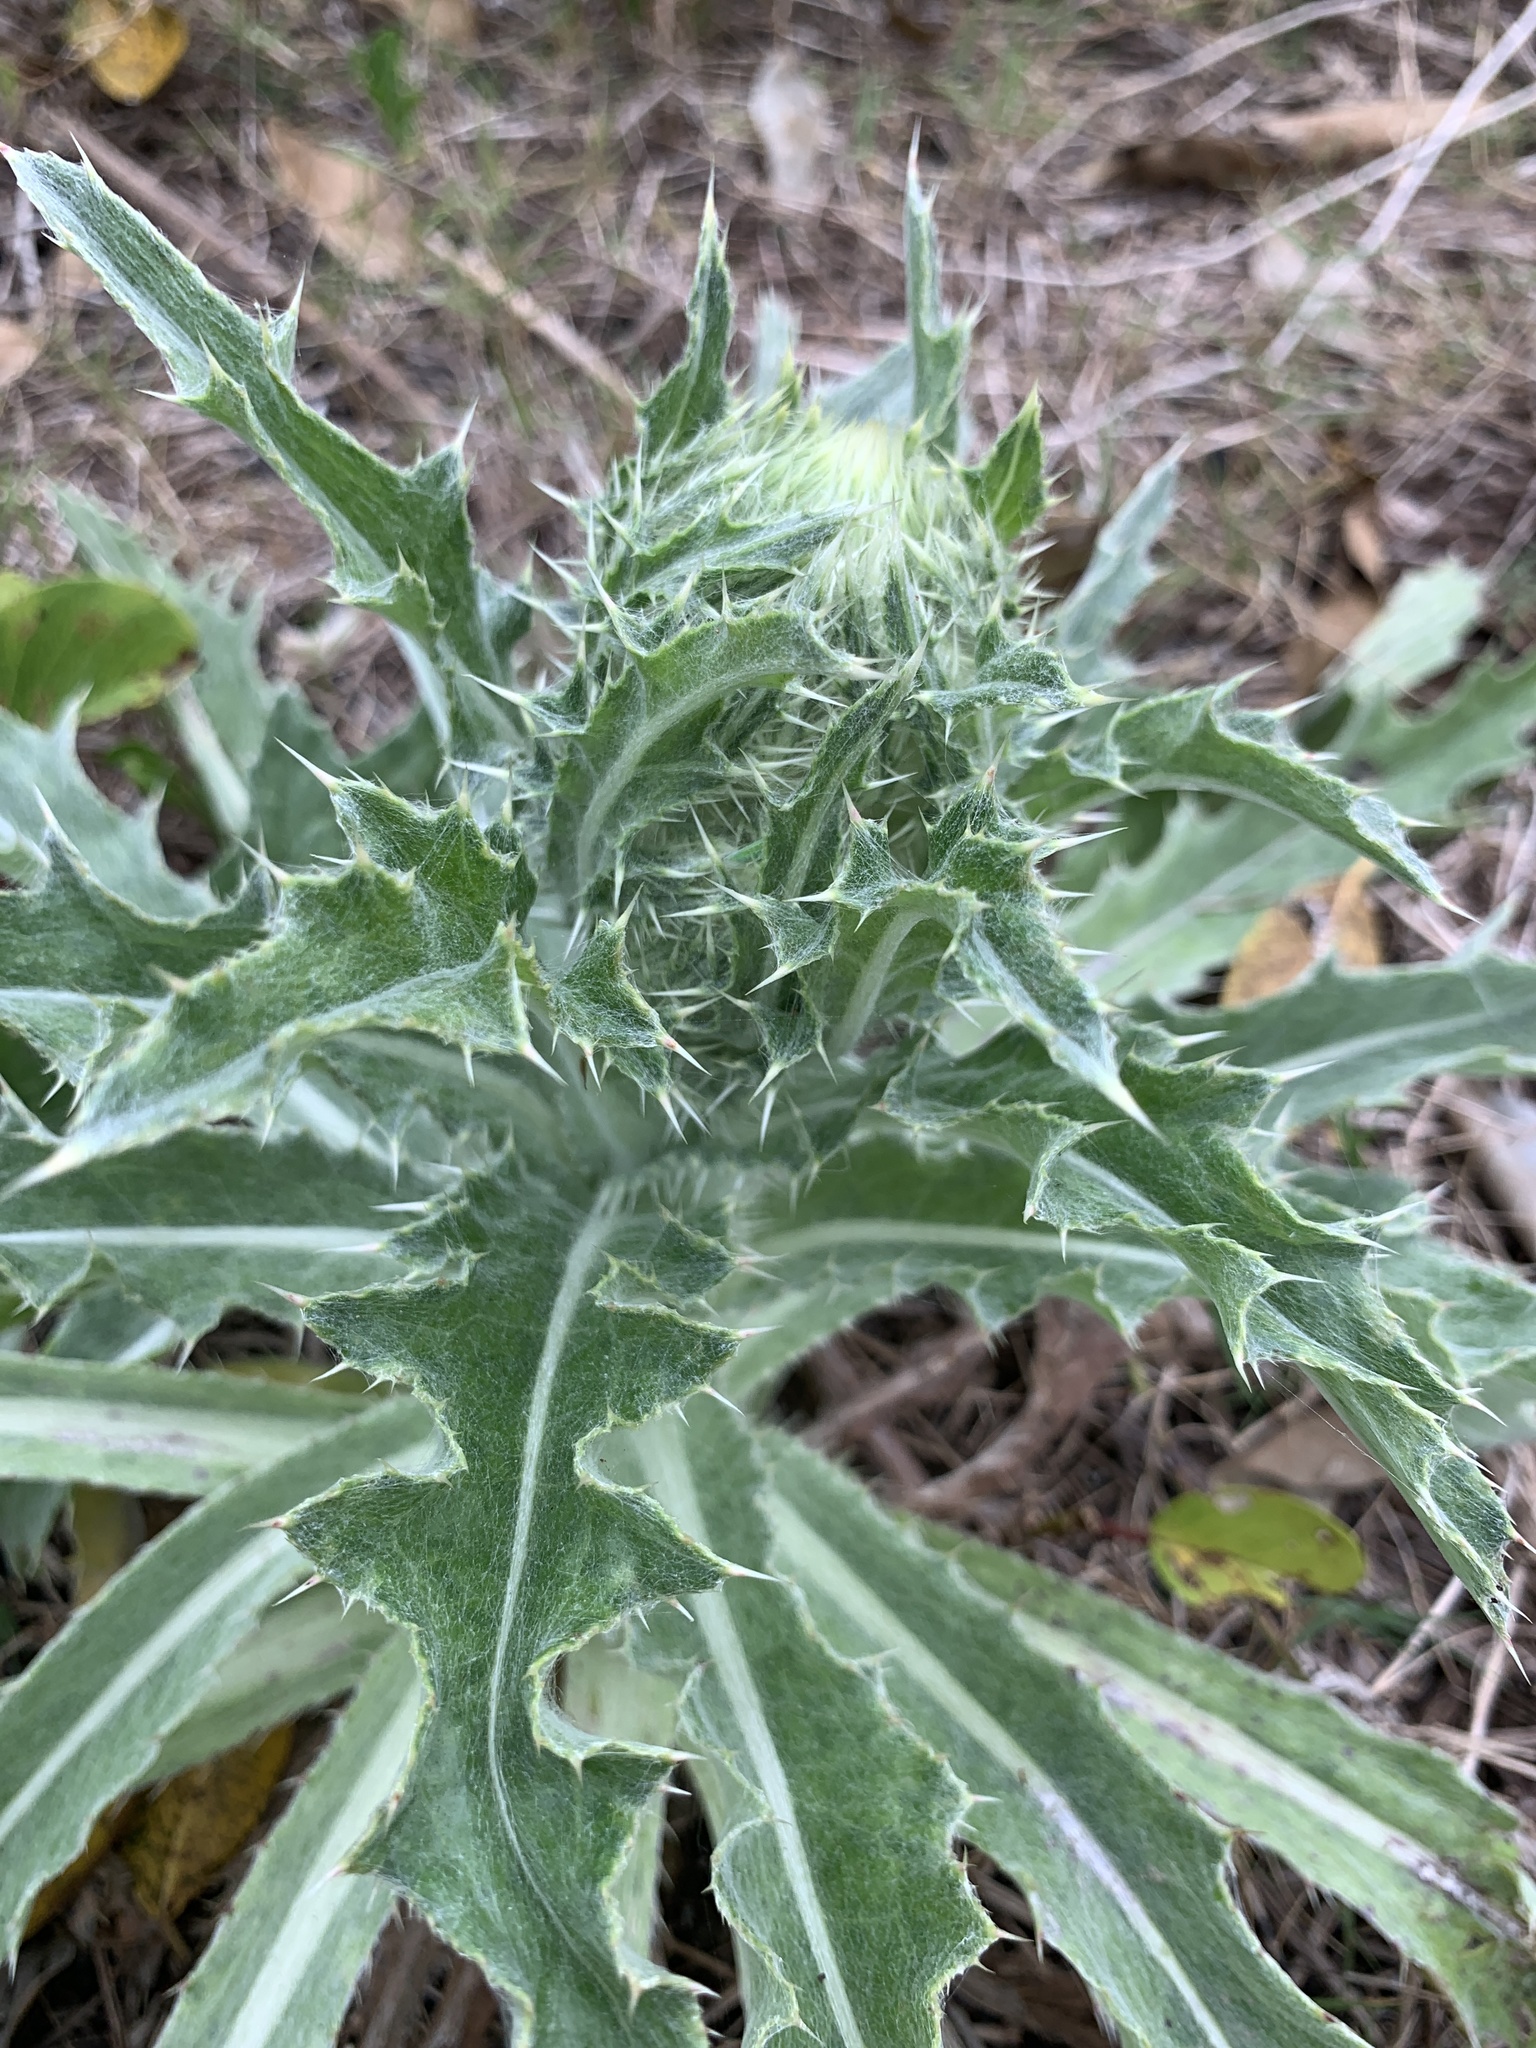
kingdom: Plantae
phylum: Tracheophyta
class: Magnoliopsida
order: Asterales
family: Asteraceae
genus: Cirsium
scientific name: Cirsium horridulum
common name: Bristly thistle
